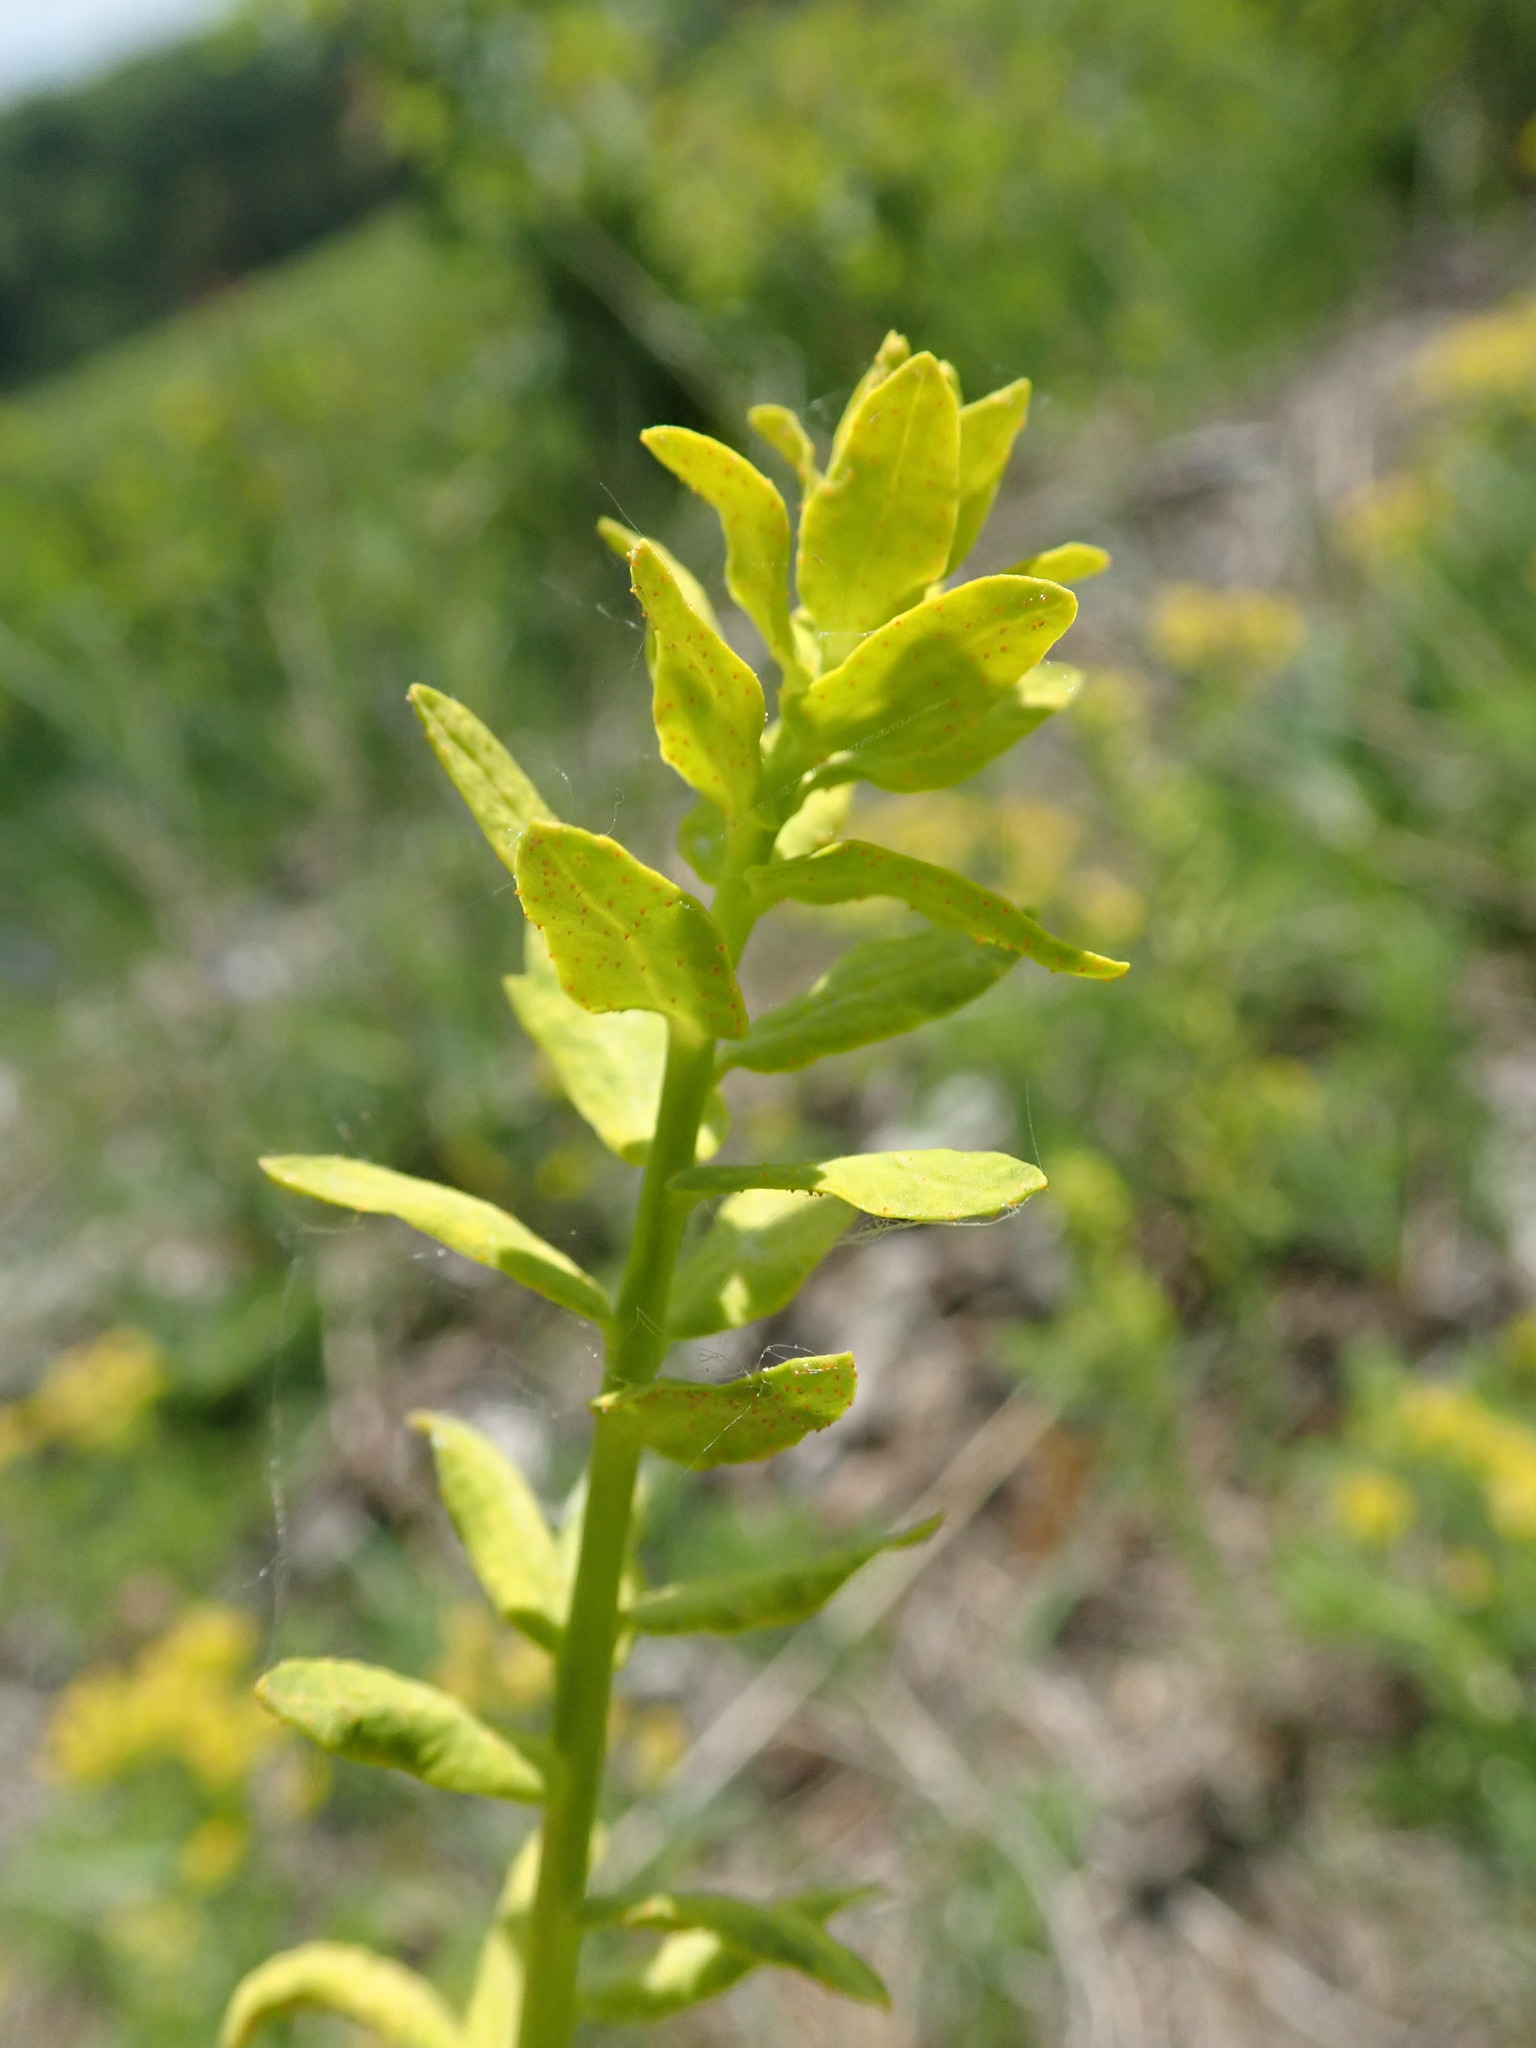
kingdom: Fungi
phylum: Basidiomycota
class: Pucciniomycetes
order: Pucciniales
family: Pucciniaceae
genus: Uromyces
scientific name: Uromyces pisi-sativi
